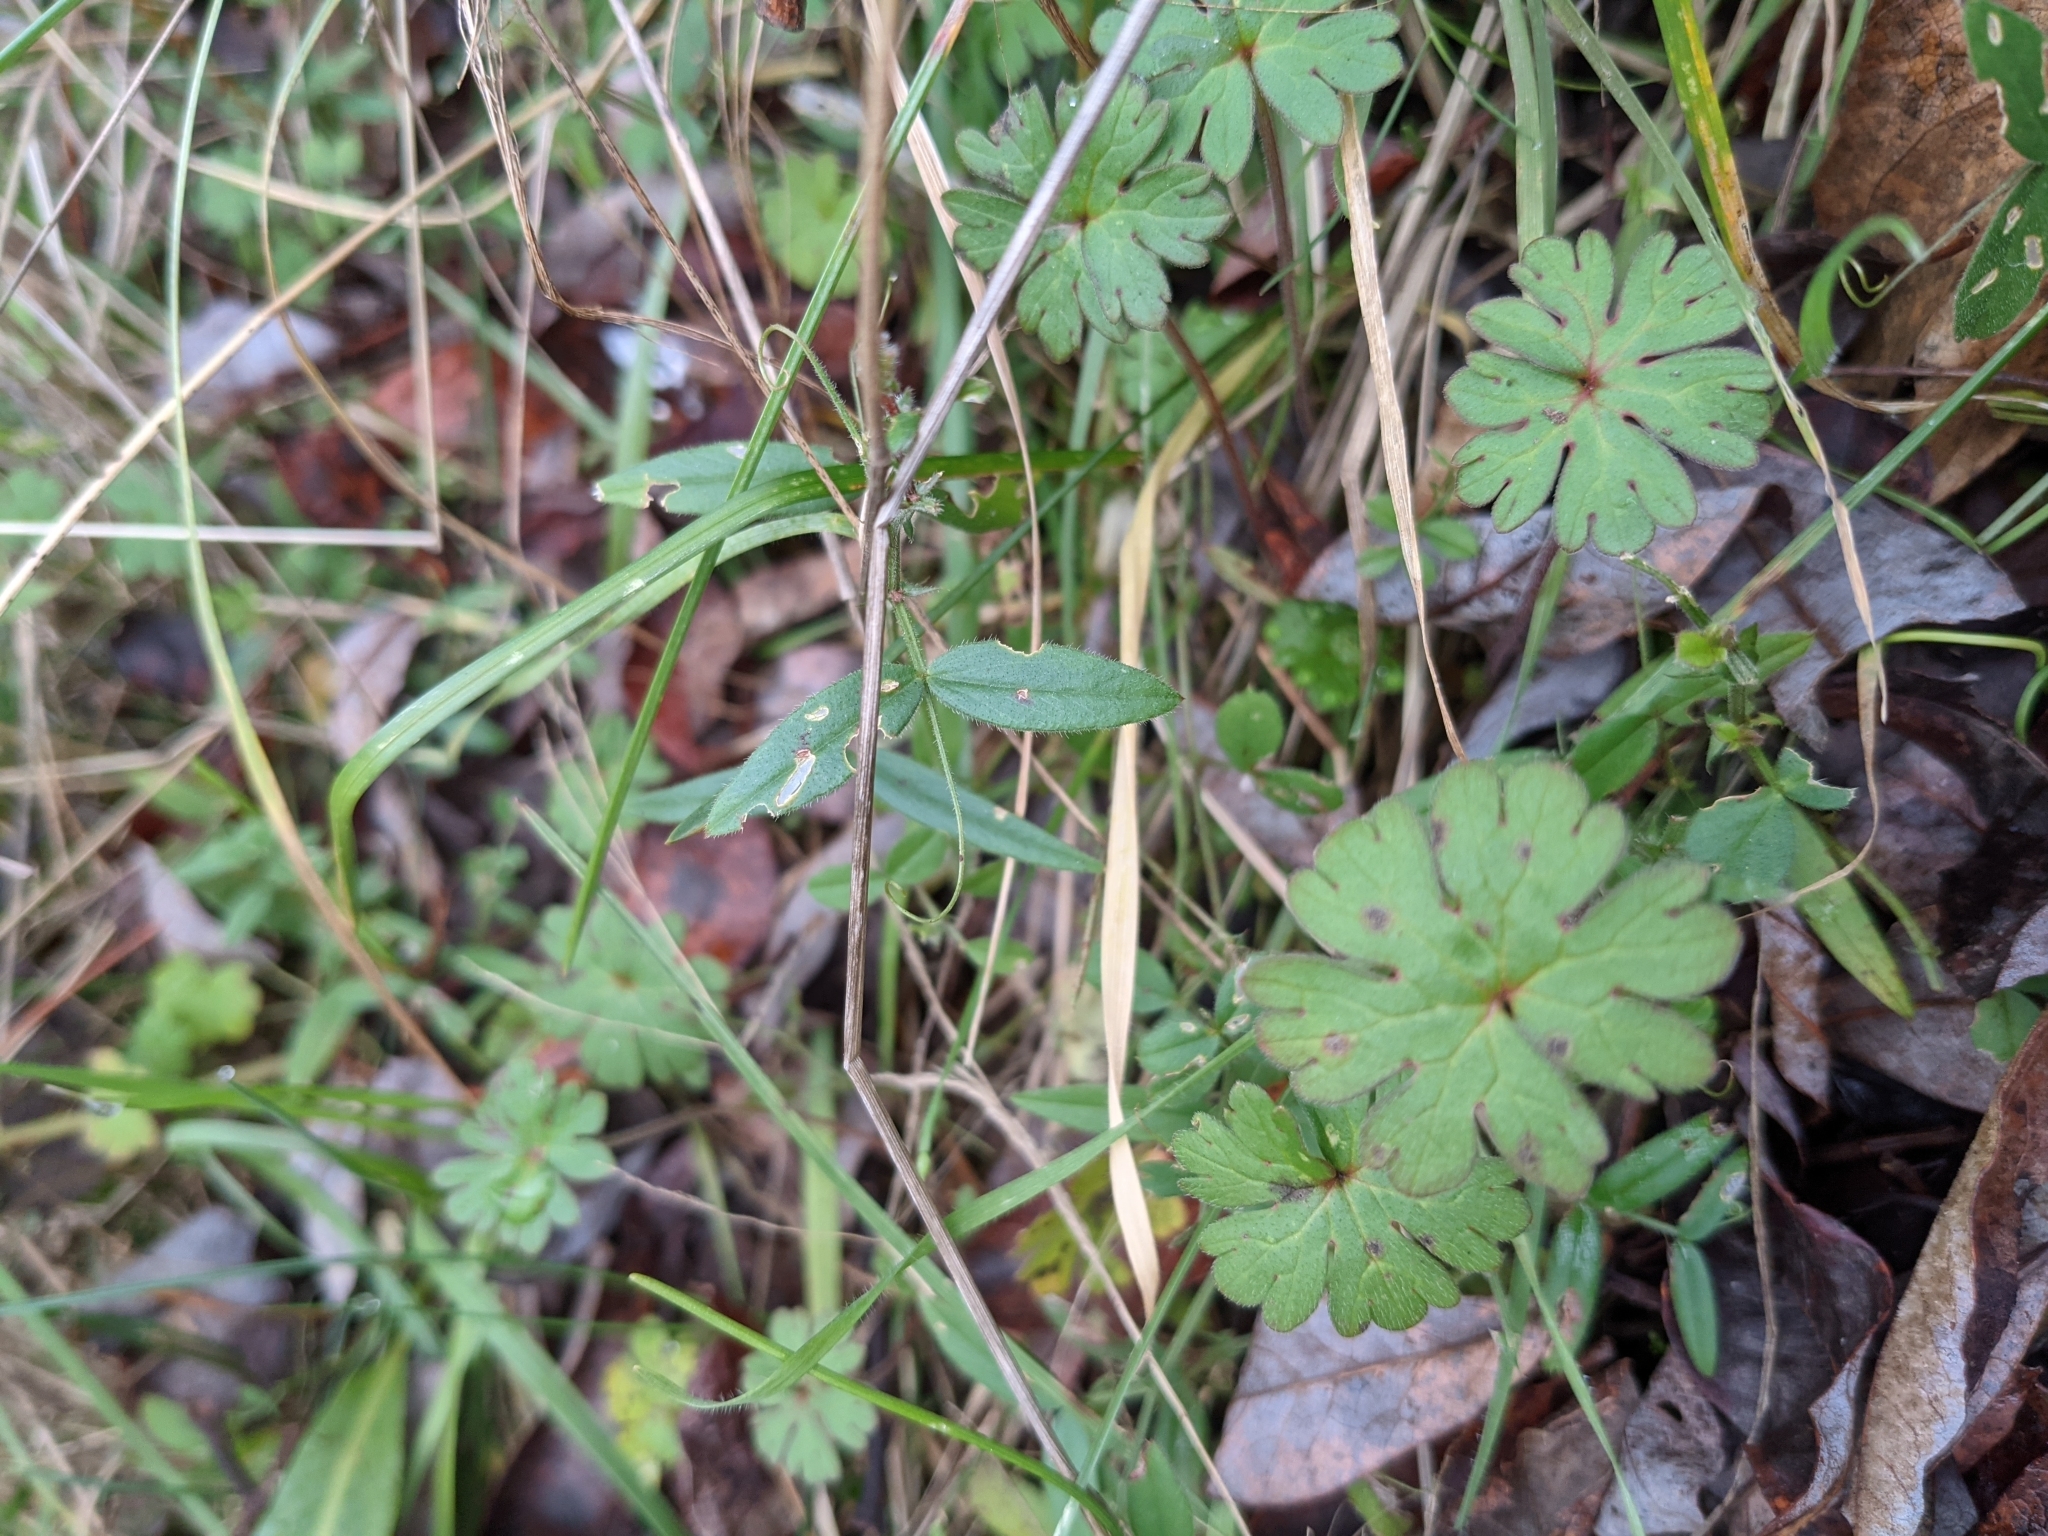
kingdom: Plantae
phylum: Tracheophyta
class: Magnoliopsida
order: Geraniales
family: Geraniaceae
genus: Geranium
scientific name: Geranium molle
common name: Dove's-foot crane's-bill
